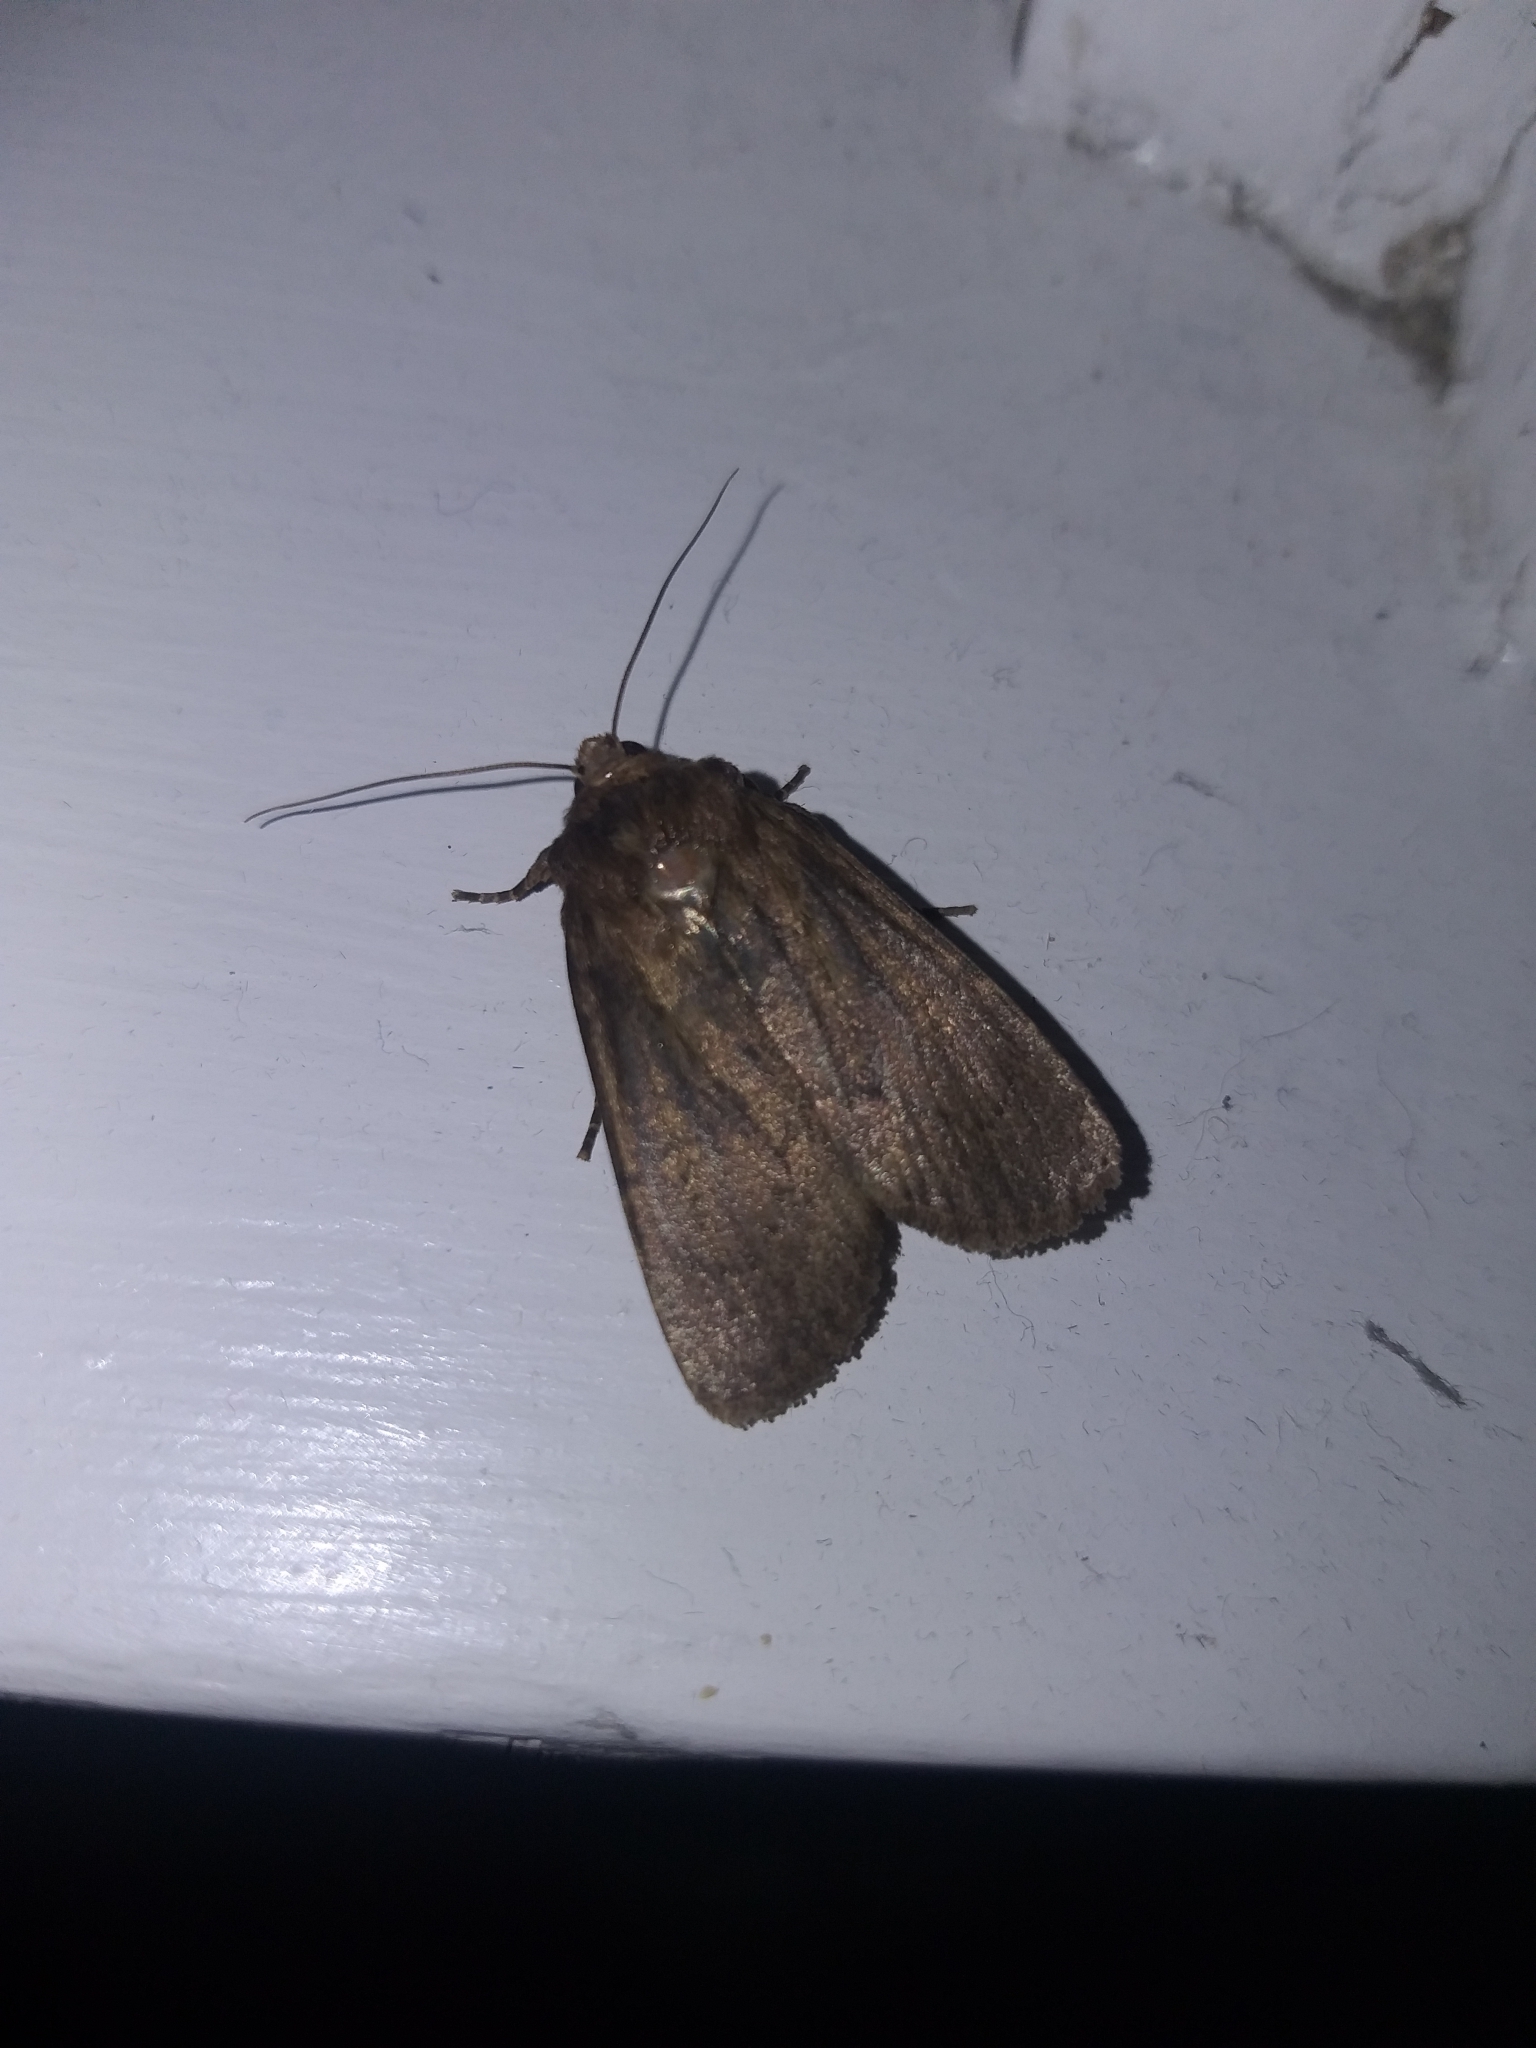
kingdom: Animalia
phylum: Arthropoda
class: Insecta
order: Lepidoptera
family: Noctuidae
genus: Bityla
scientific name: Bityla defigurata
